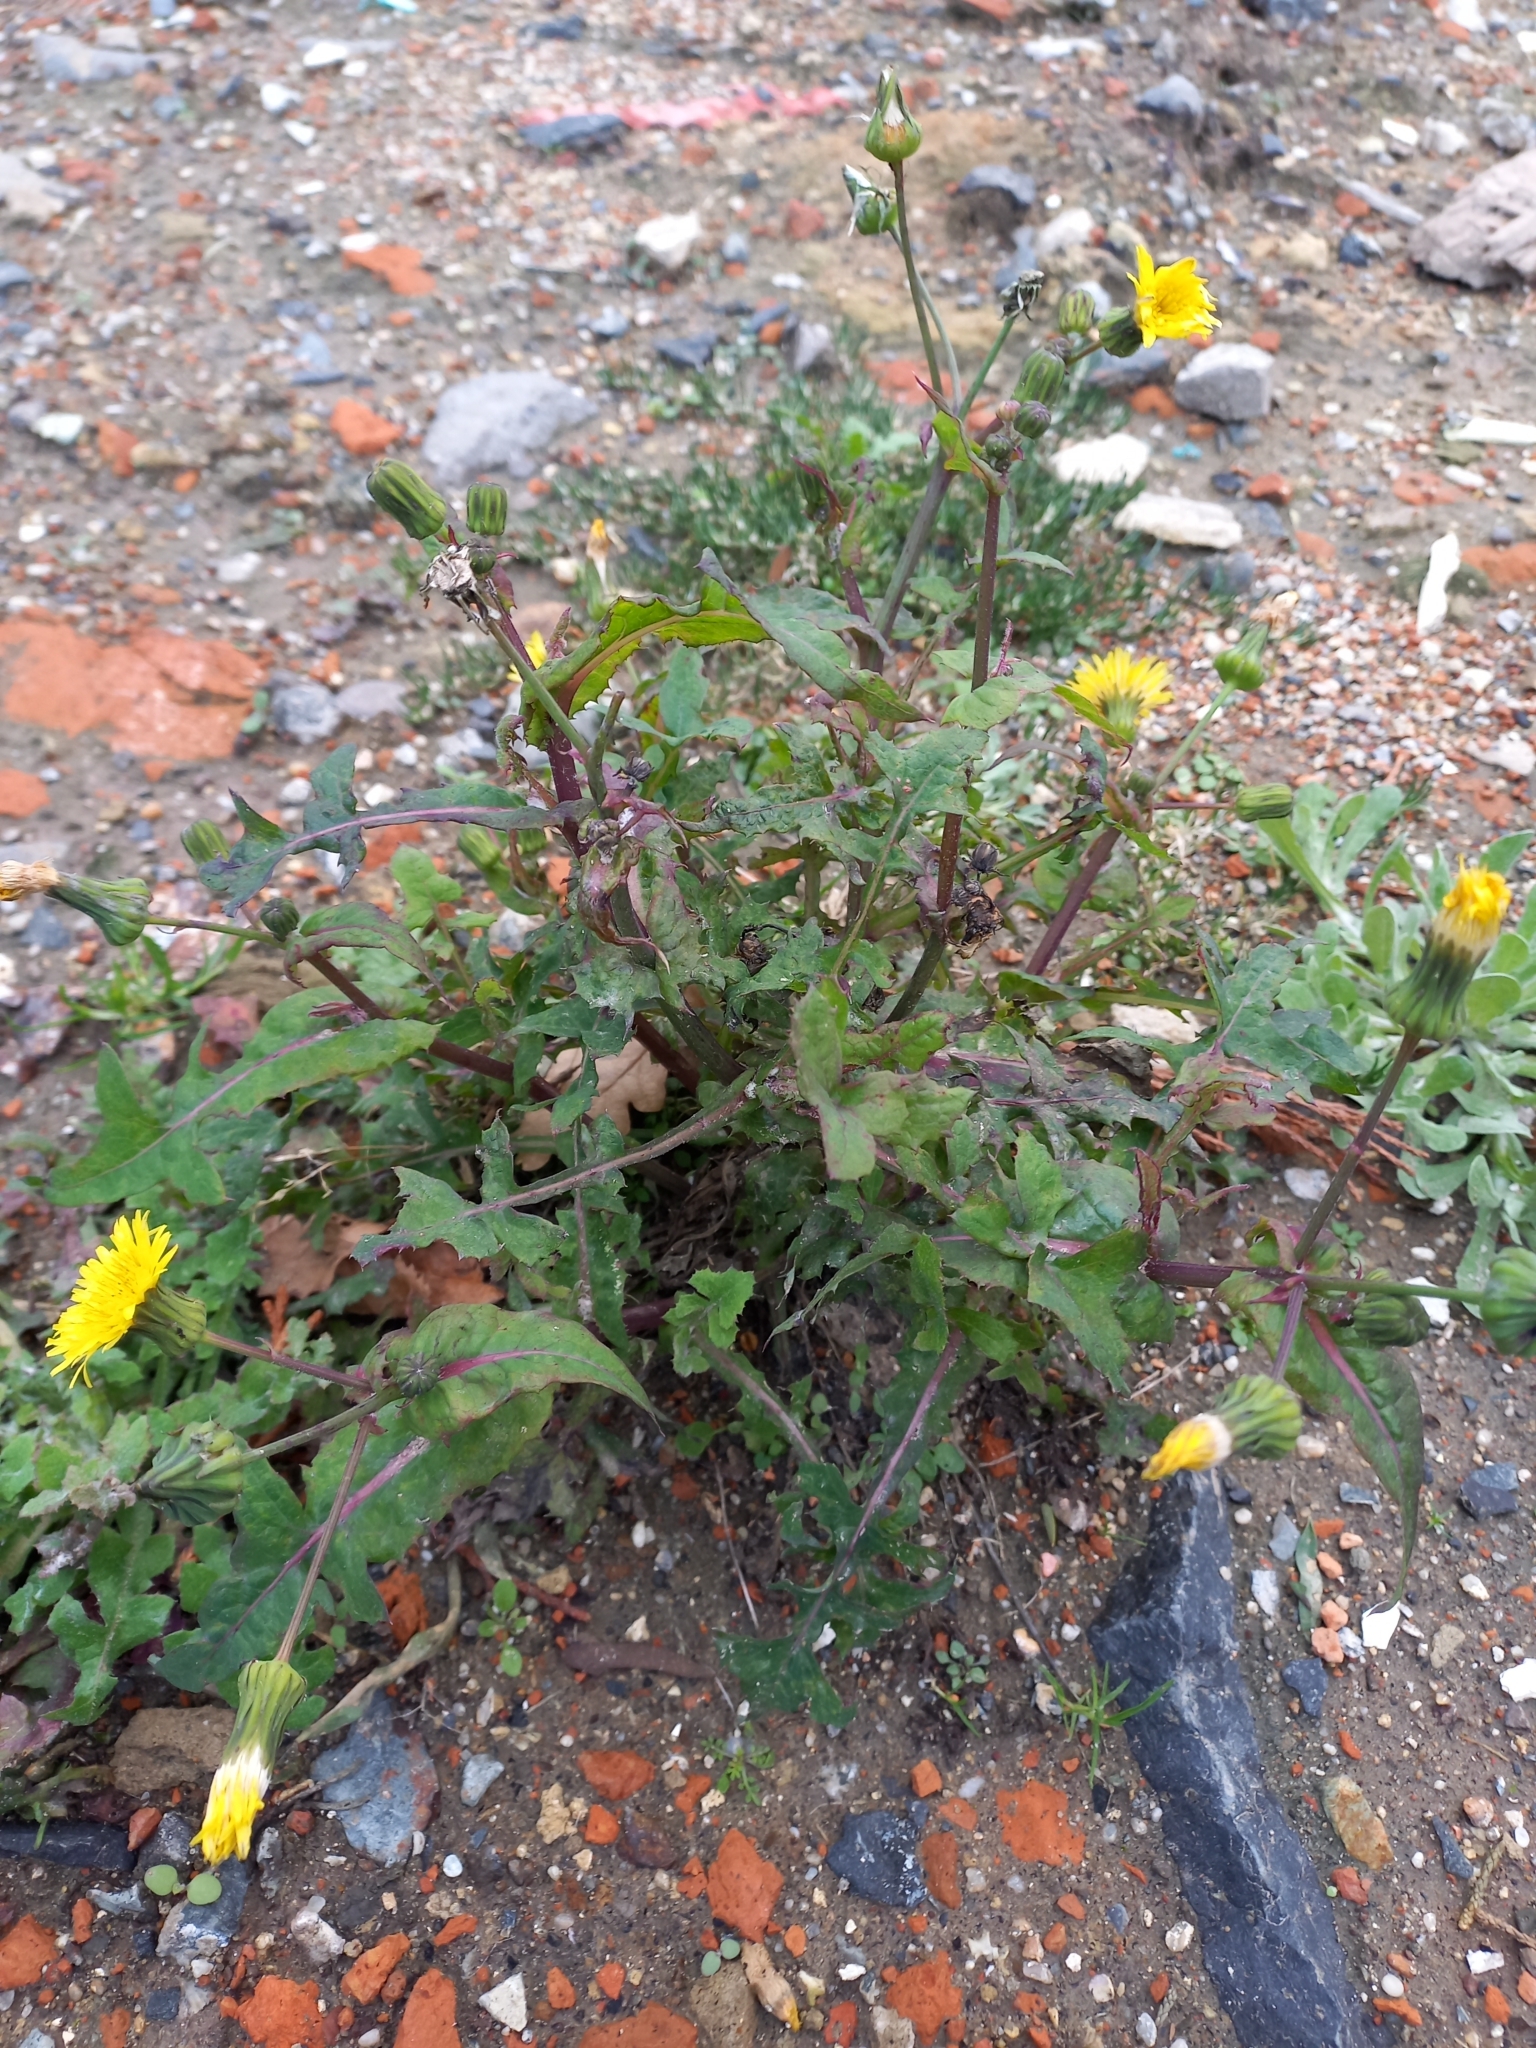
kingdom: Plantae
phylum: Tracheophyta
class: Magnoliopsida
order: Asterales
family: Asteraceae
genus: Sonchus
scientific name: Sonchus oleraceus
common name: Common sowthistle
